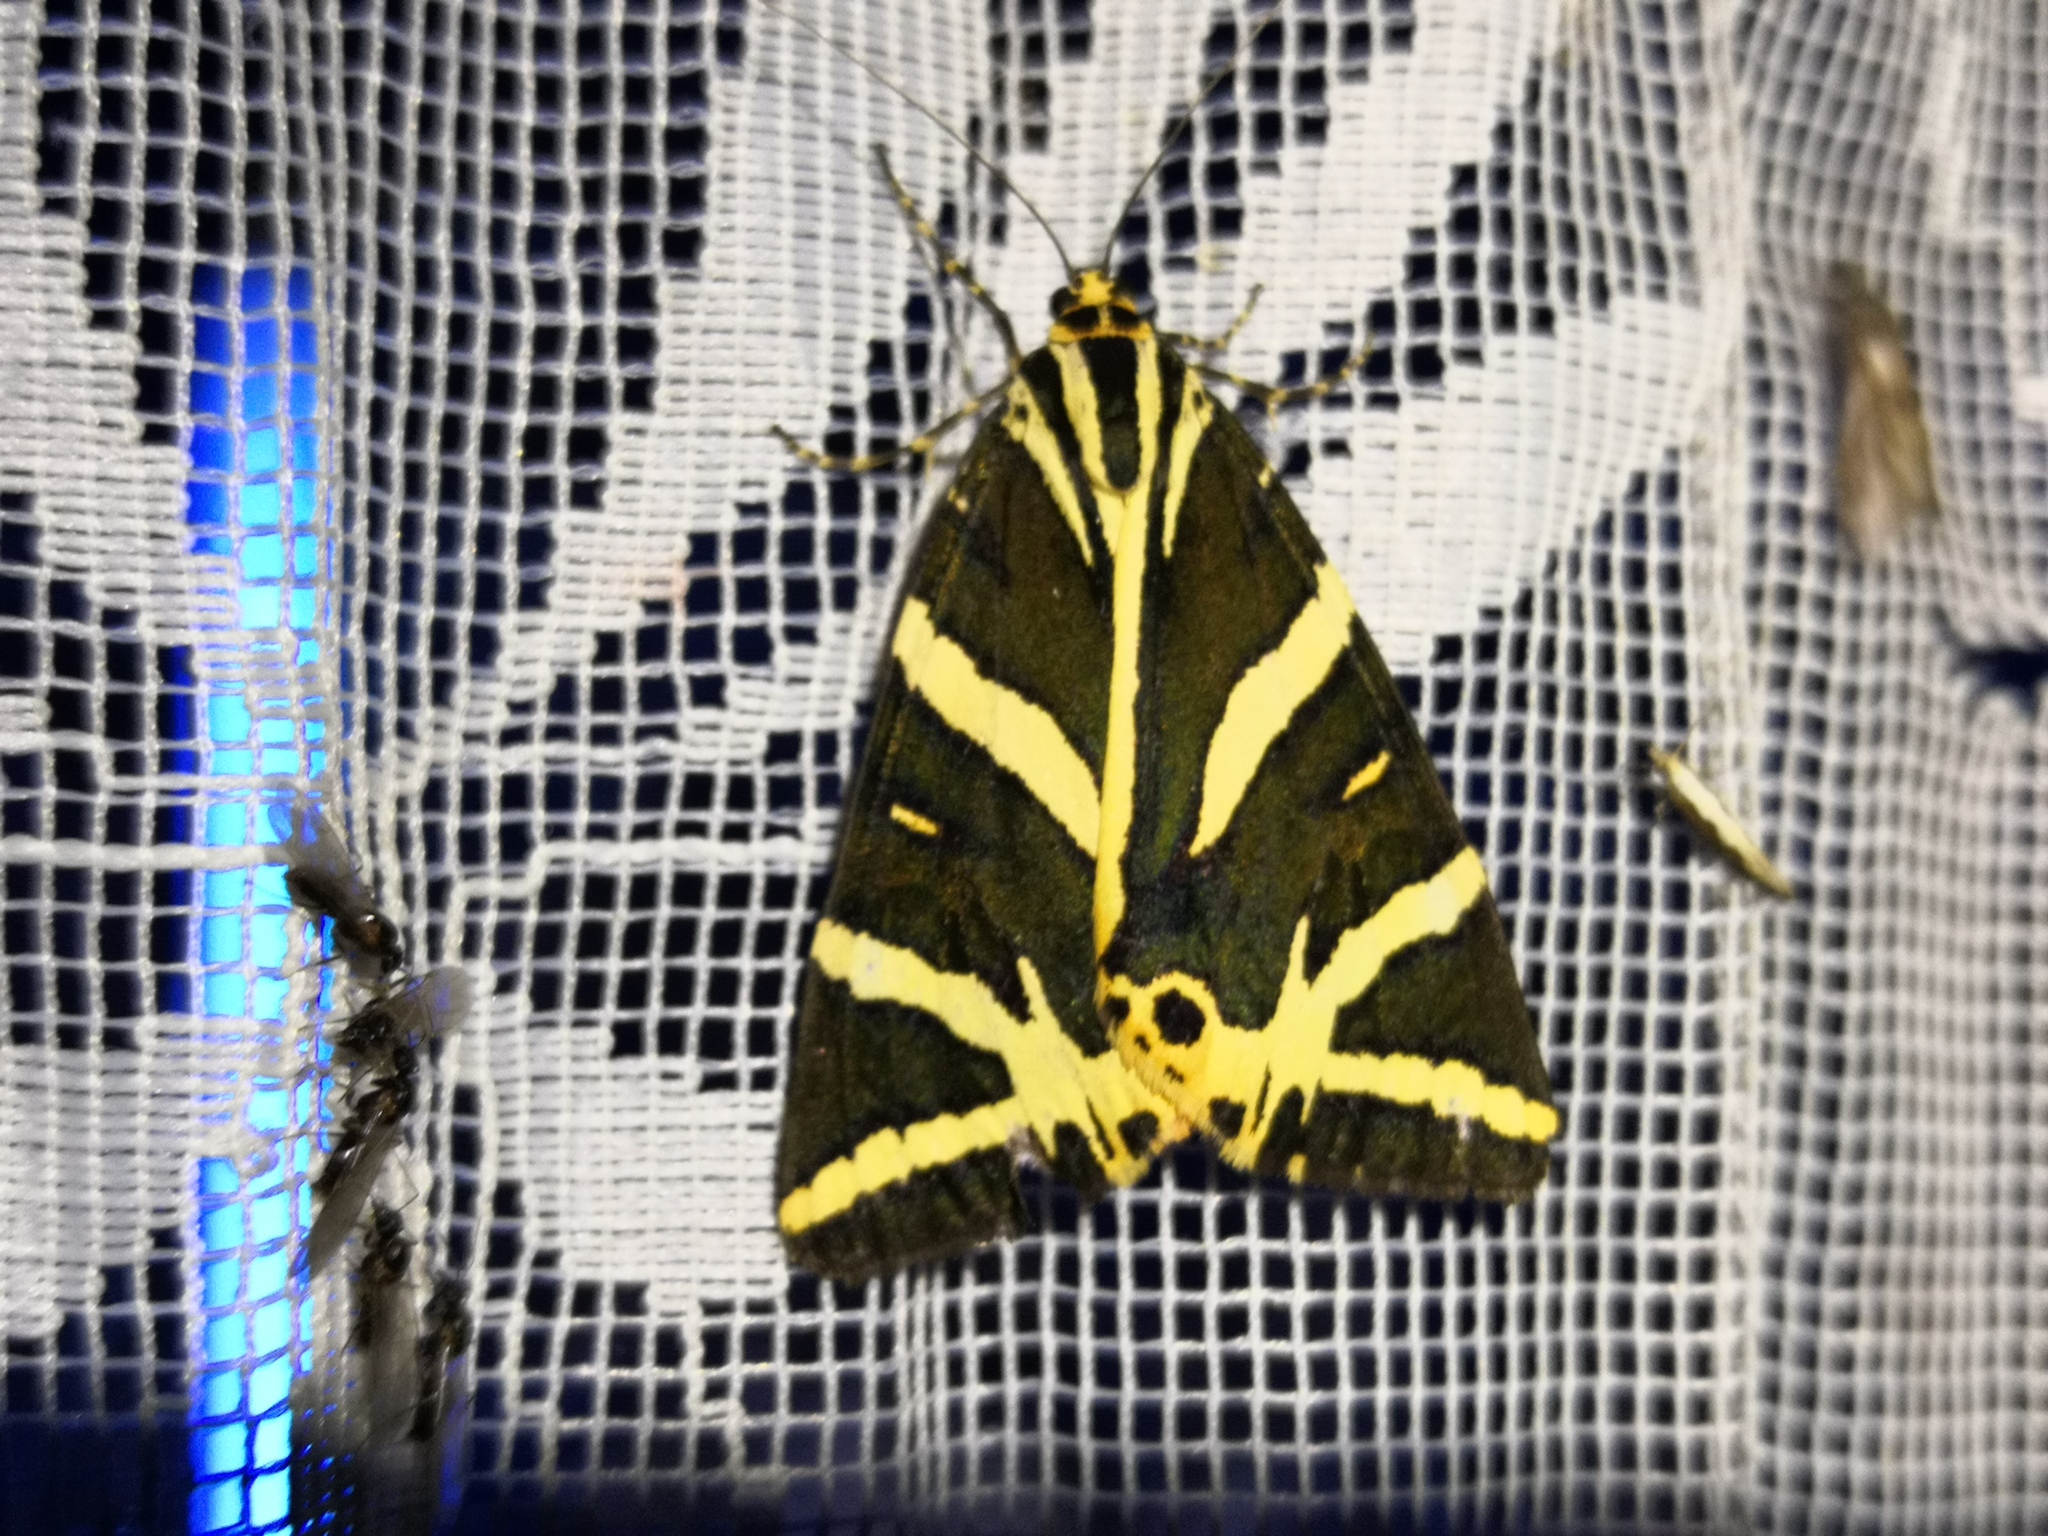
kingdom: Animalia
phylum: Arthropoda
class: Insecta
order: Lepidoptera
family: Erebidae
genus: Euplagia
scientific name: Euplagia quadripunctaria
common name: Jersey tiger
